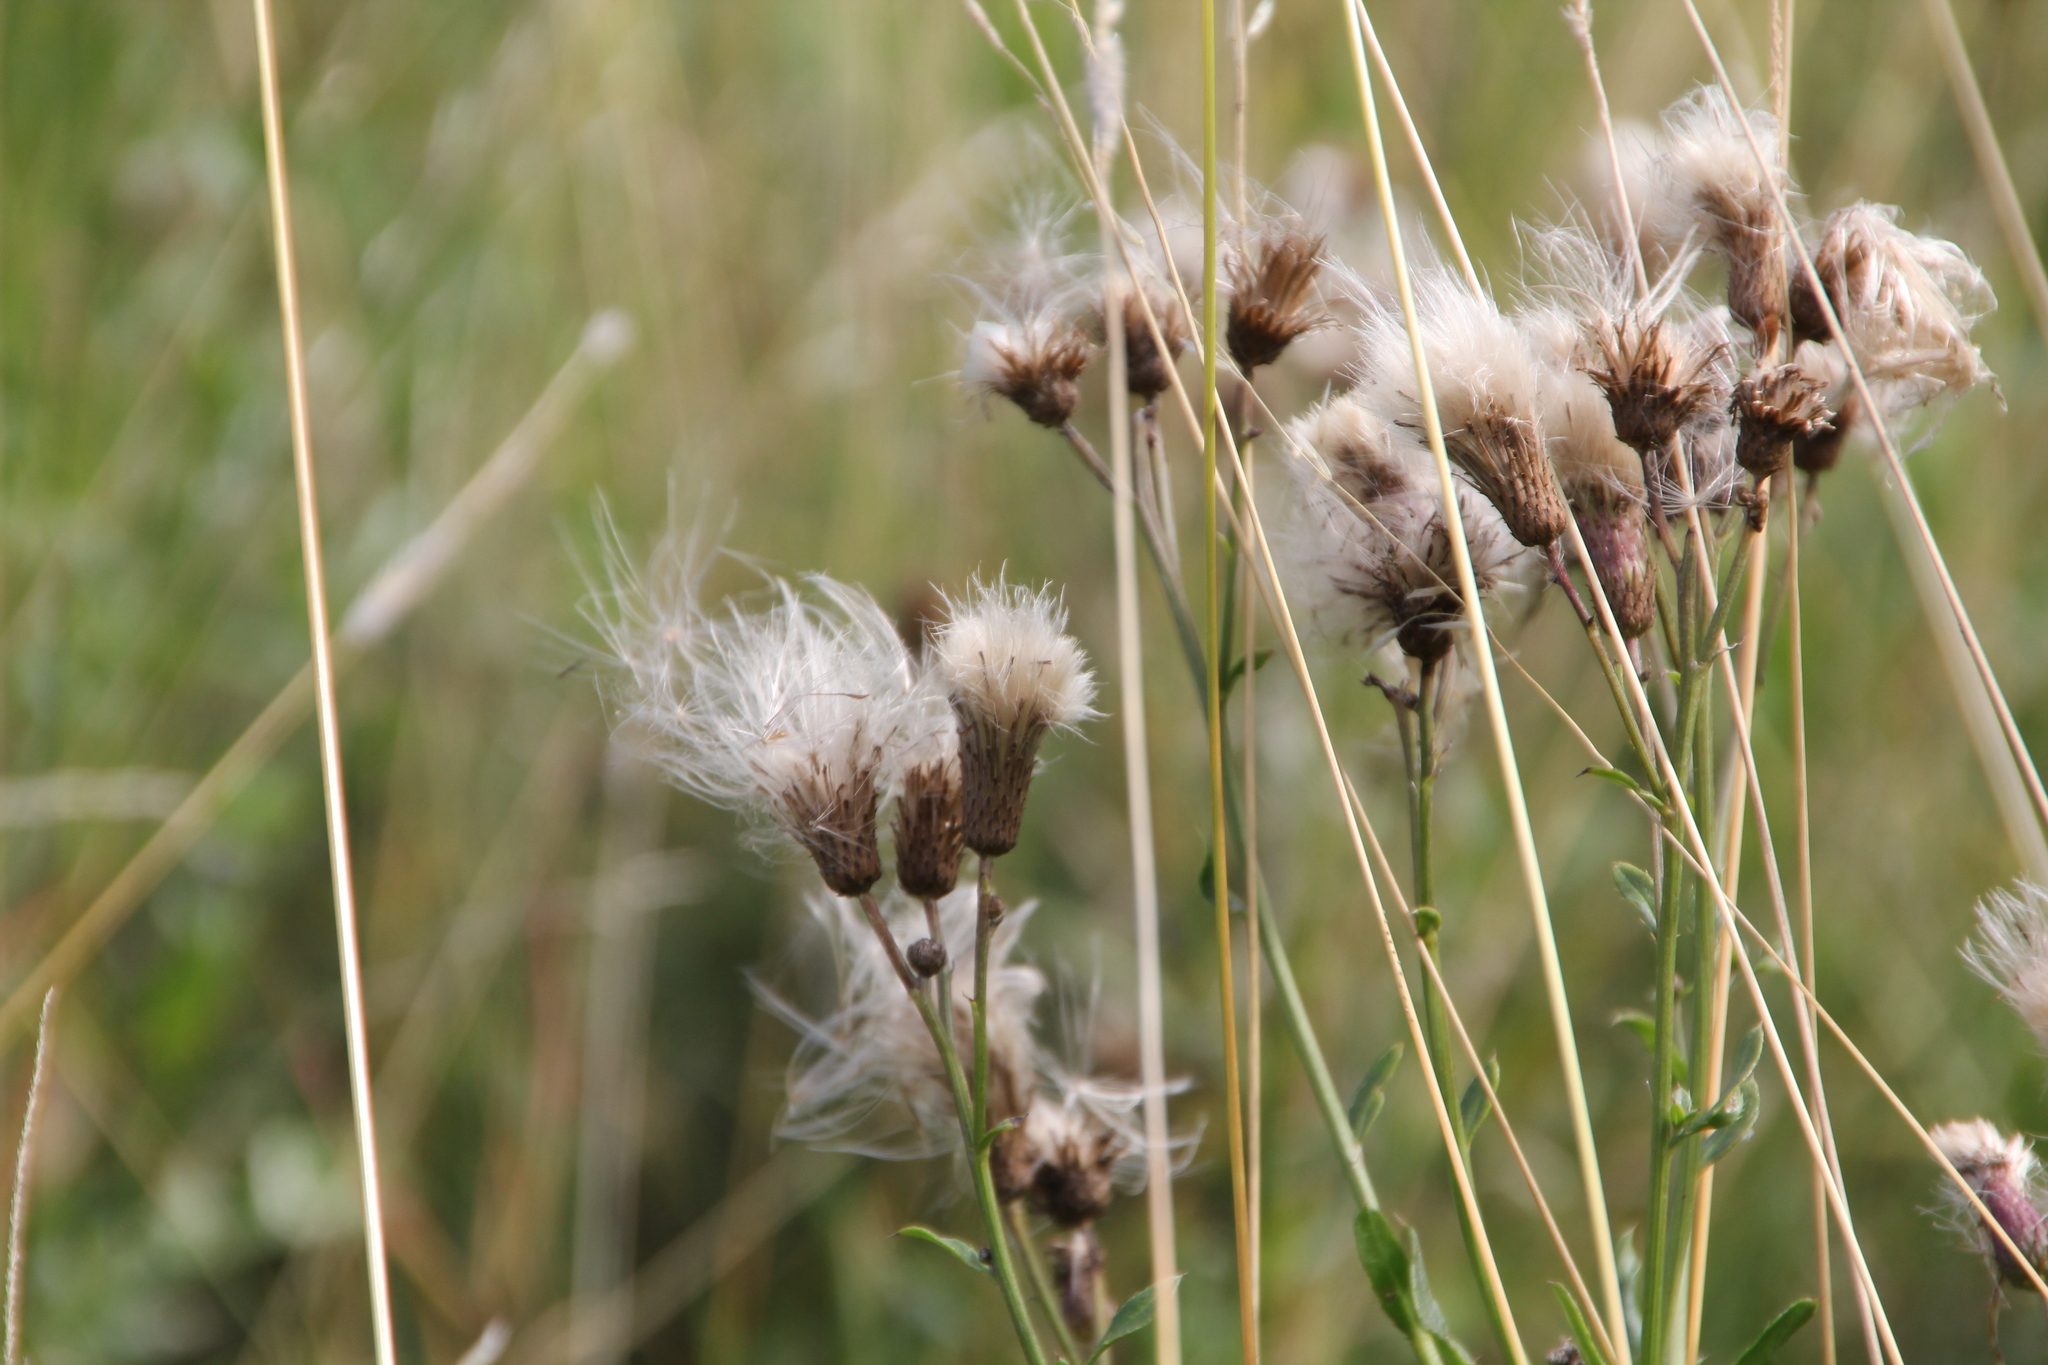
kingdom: Plantae
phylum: Tracheophyta
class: Magnoliopsida
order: Asterales
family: Asteraceae
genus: Cirsium
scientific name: Cirsium arvense
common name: Creeping thistle
